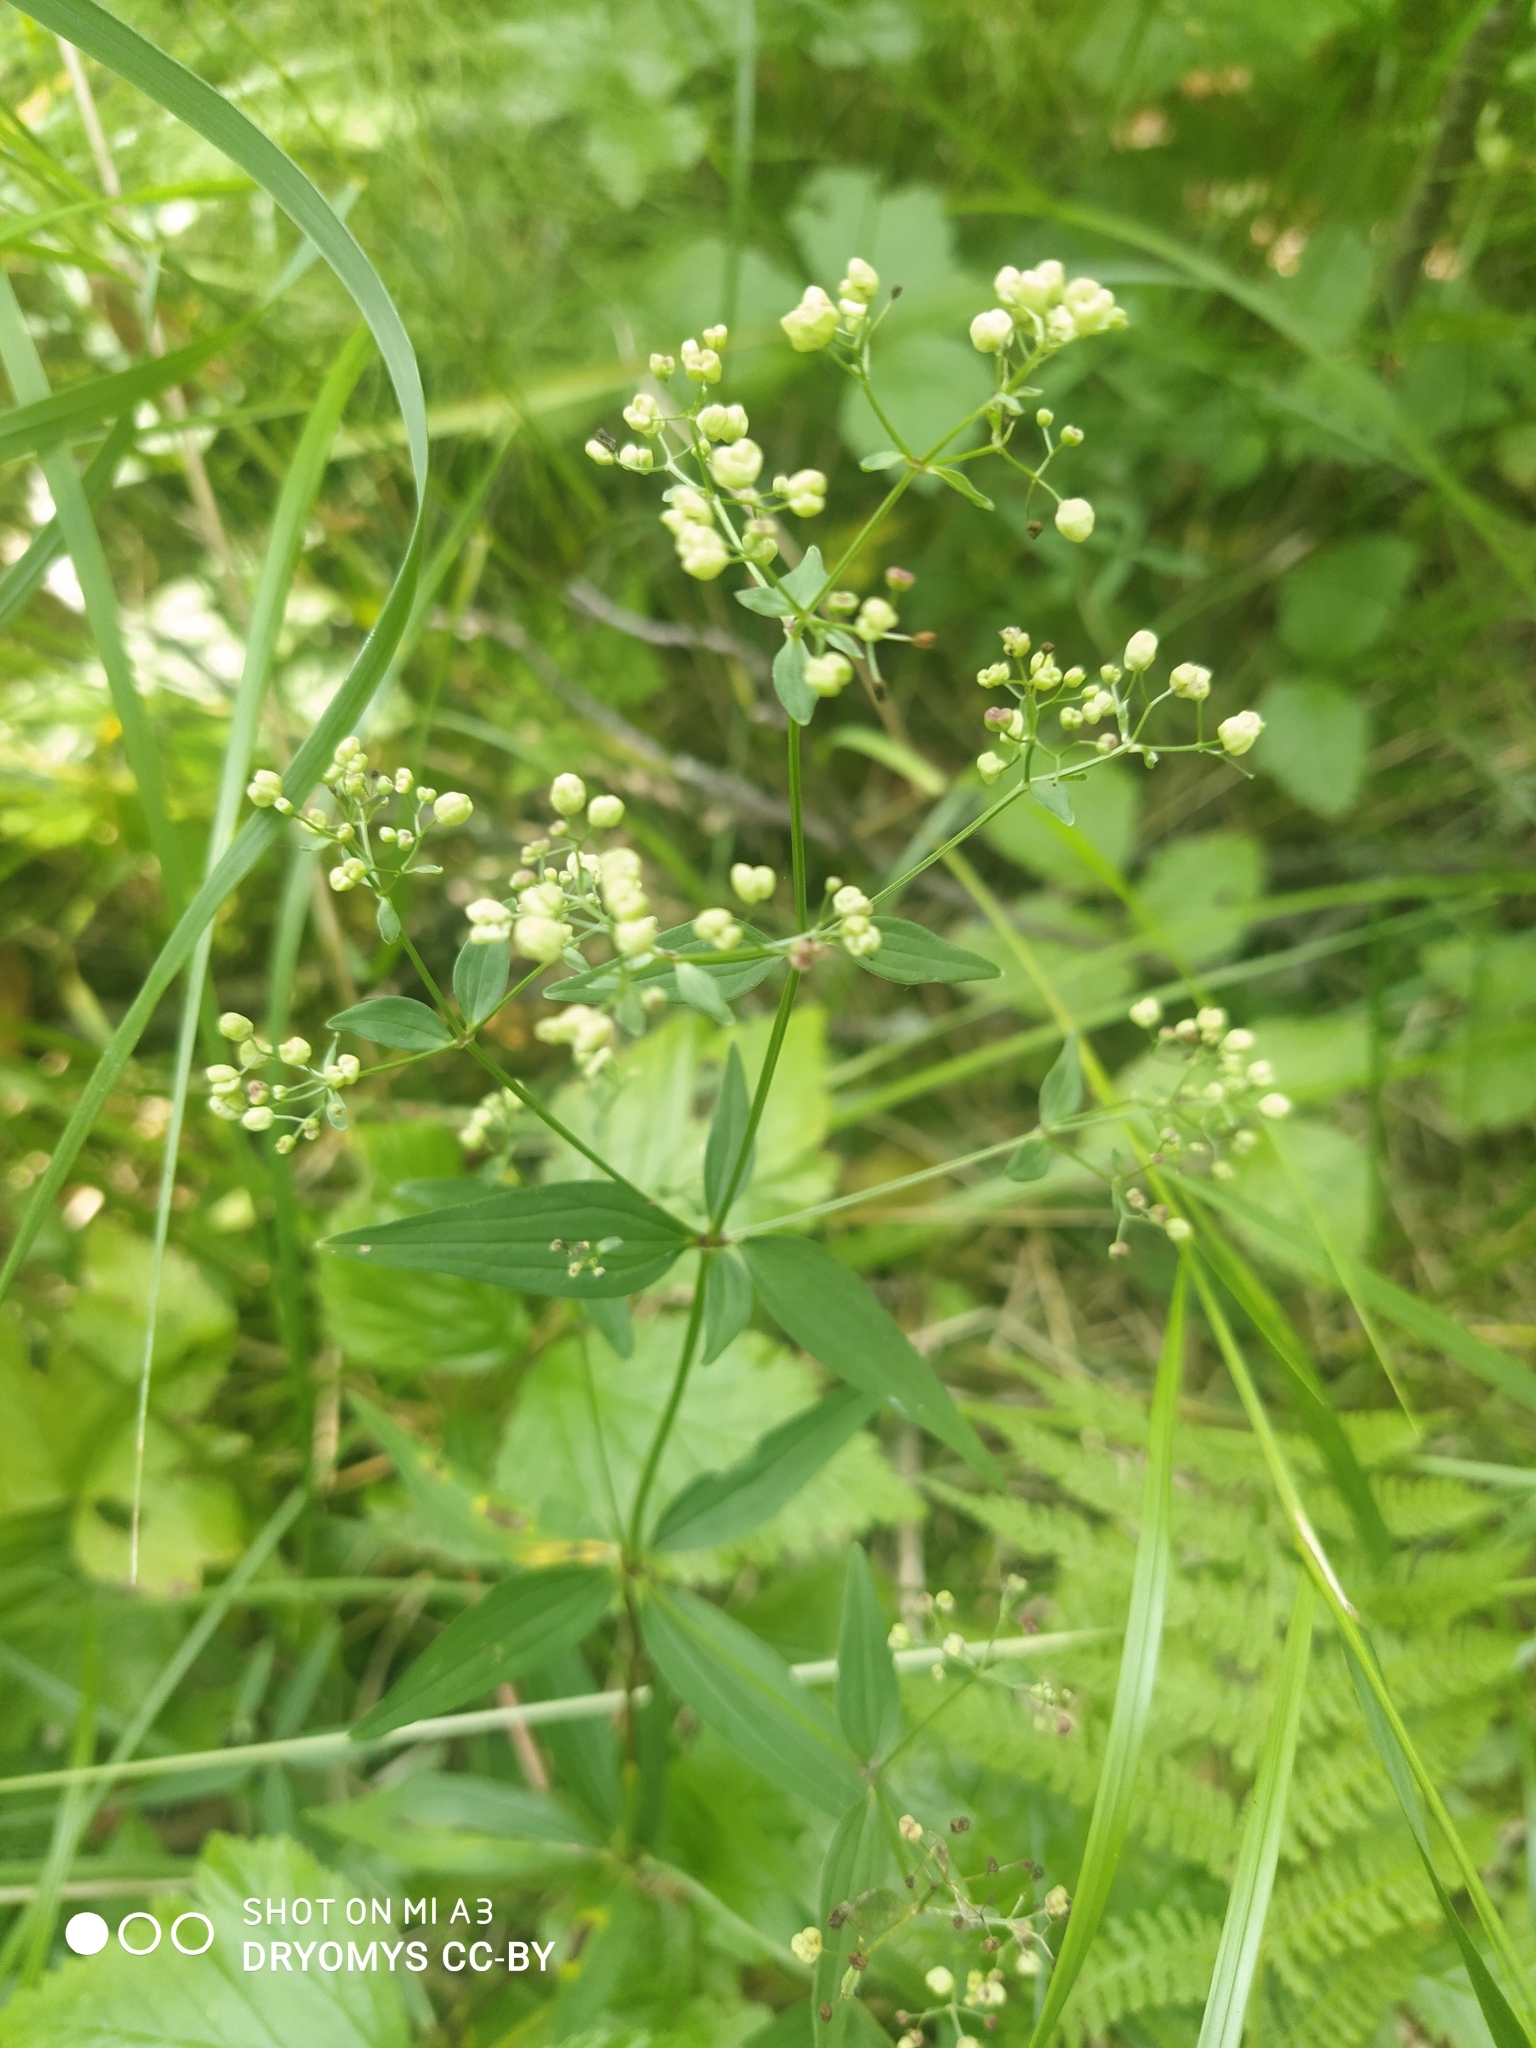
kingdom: Plantae
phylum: Tracheophyta
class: Magnoliopsida
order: Gentianales
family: Rubiaceae
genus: Galium
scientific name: Galium boreale
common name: Northern bedstraw
